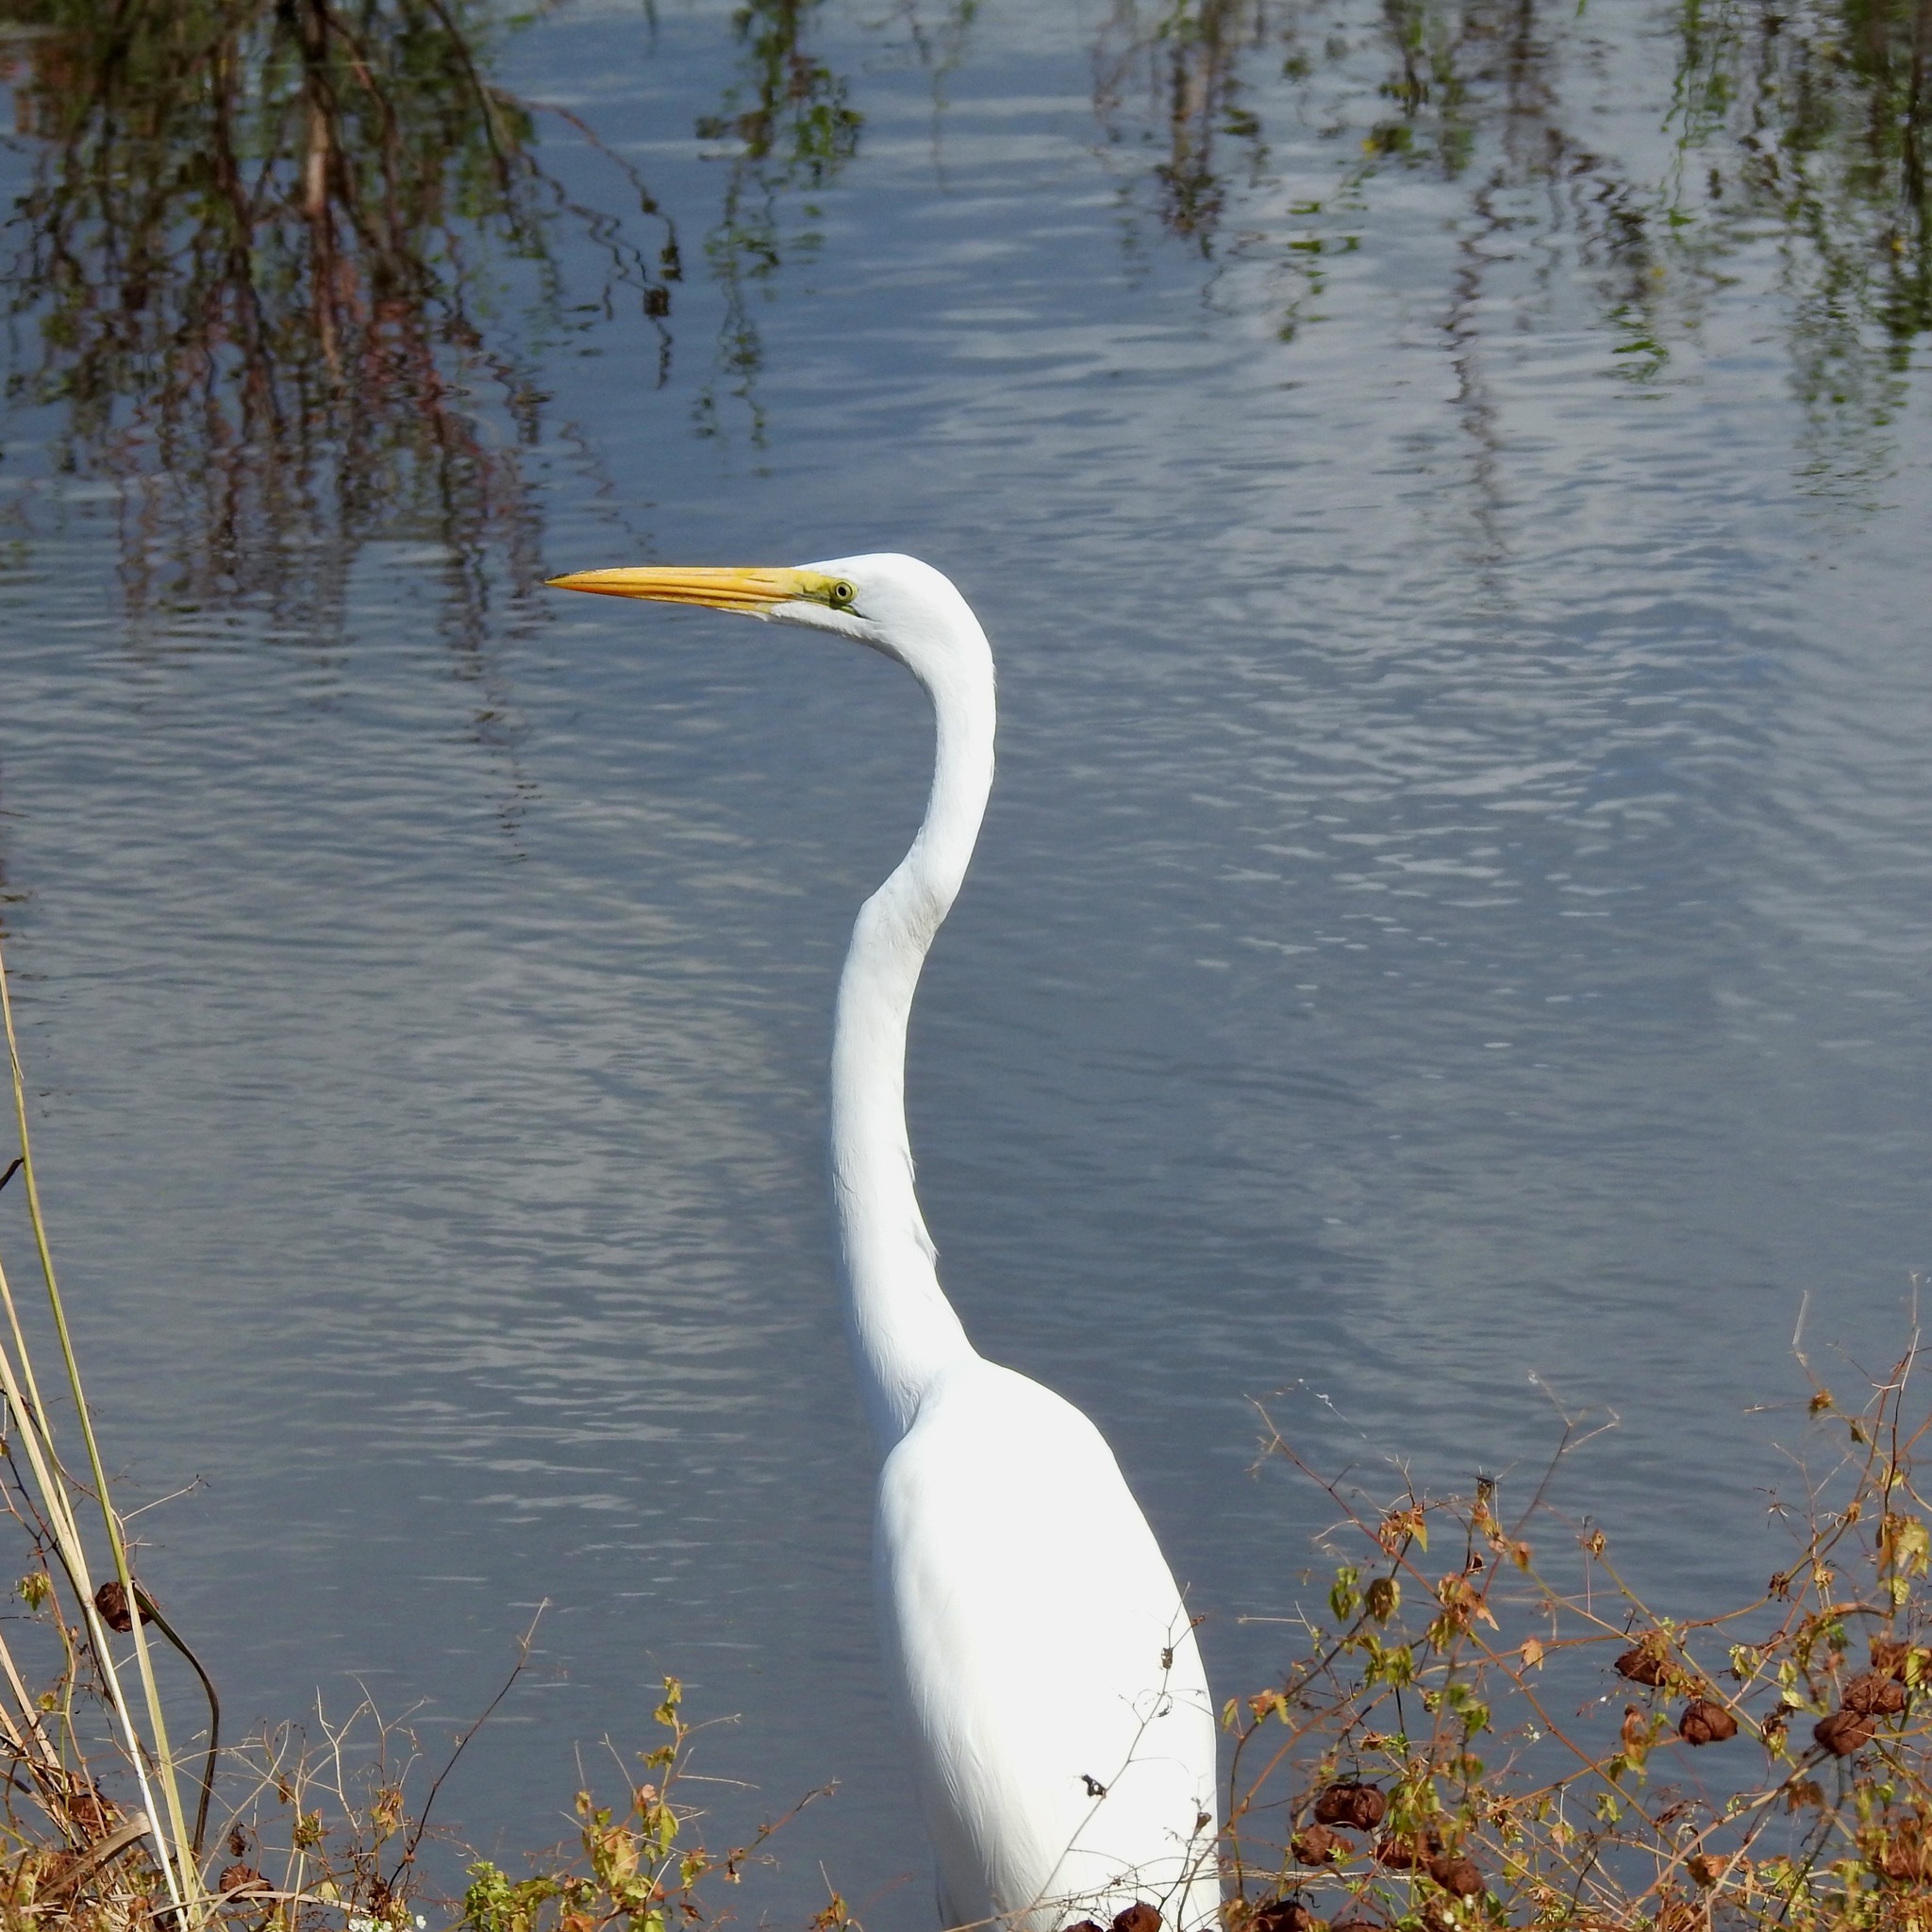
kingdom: Animalia
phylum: Chordata
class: Aves
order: Pelecaniformes
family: Ardeidae
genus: Ardea
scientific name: Ardea alba
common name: Great egret
